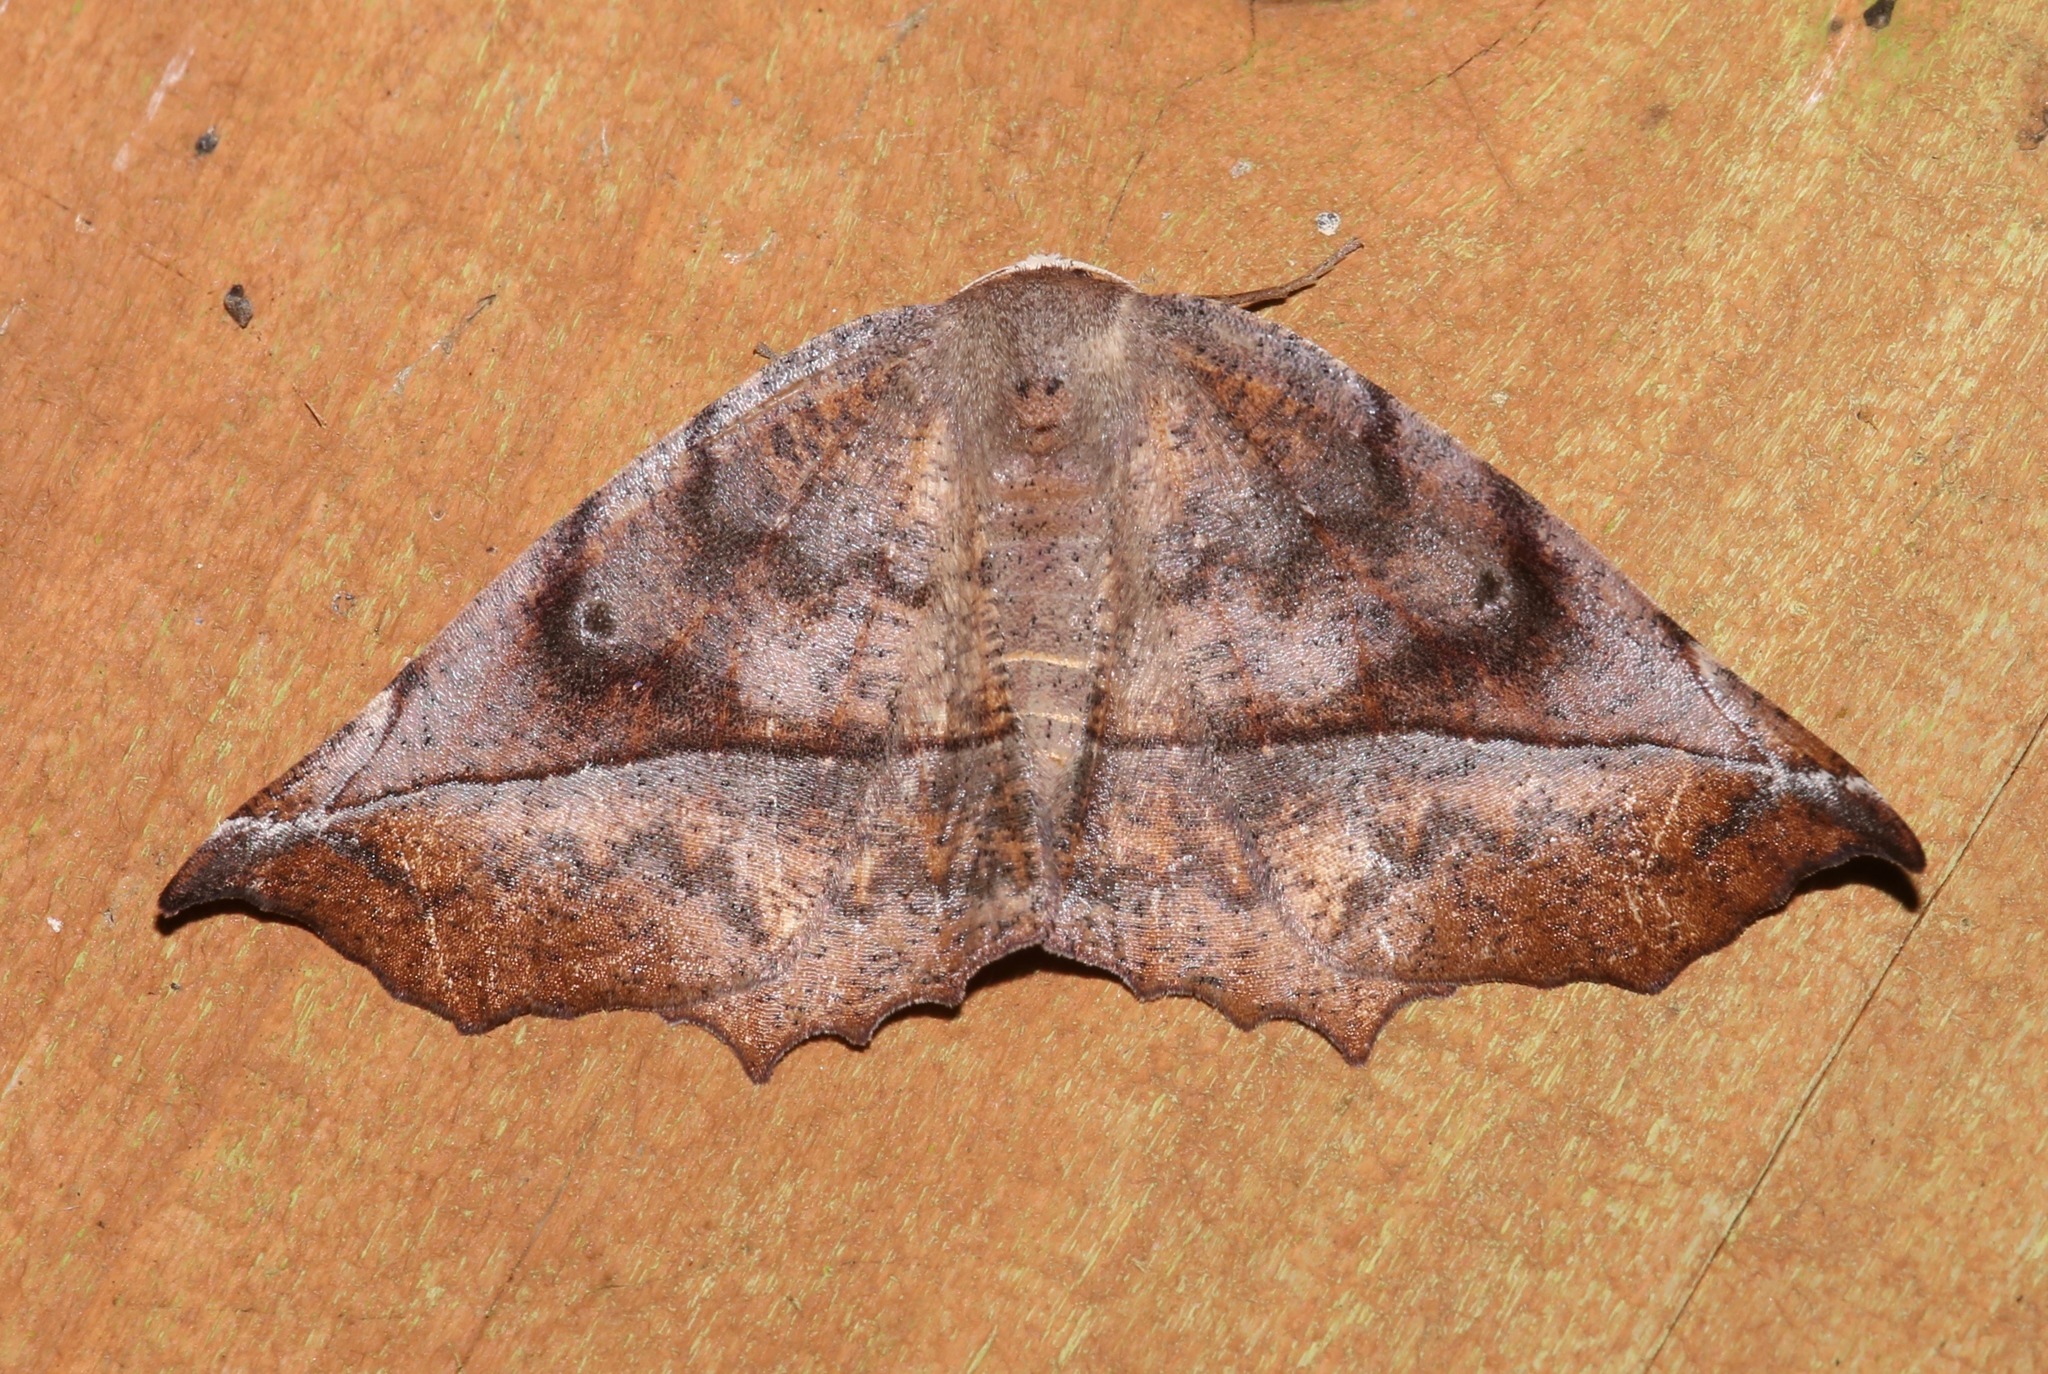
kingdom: Animalia
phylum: Arthropoda
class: Insecta
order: Lepidoptera
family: Geometridae
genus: Eutrapela
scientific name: Eutrapela clemataria
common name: Curved-toothed geometer
